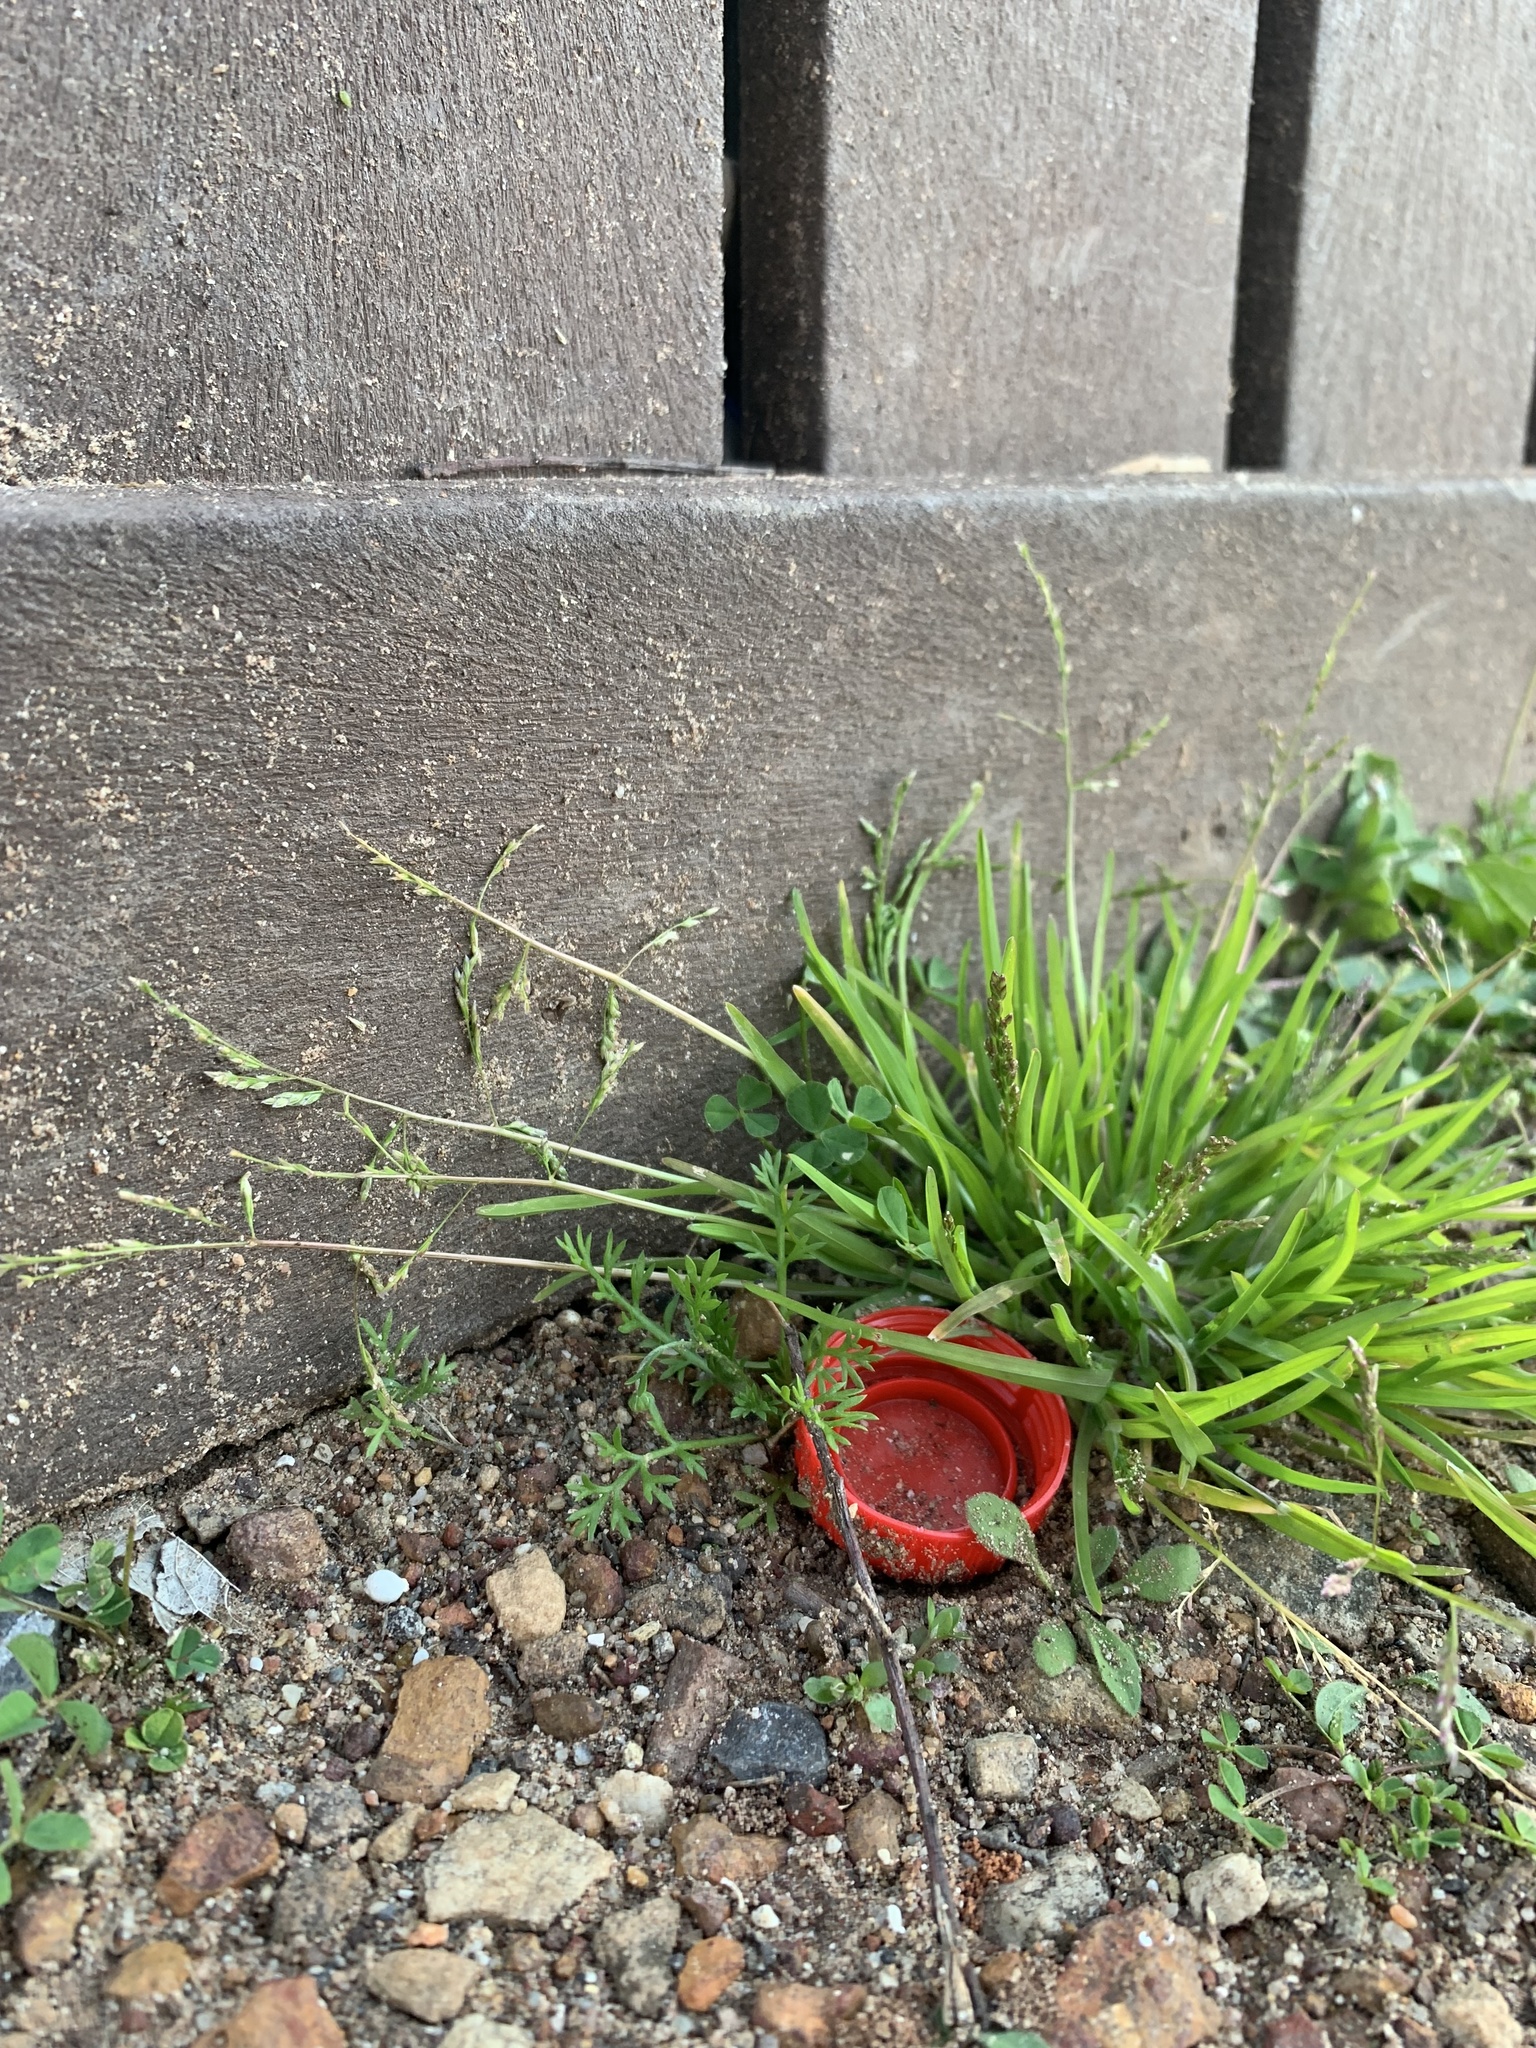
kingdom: Plantae
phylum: Tracheophyta
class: Liliopsida
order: Poales
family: Poaceae
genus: Poa
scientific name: Poa annua
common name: Annual bluegrass
